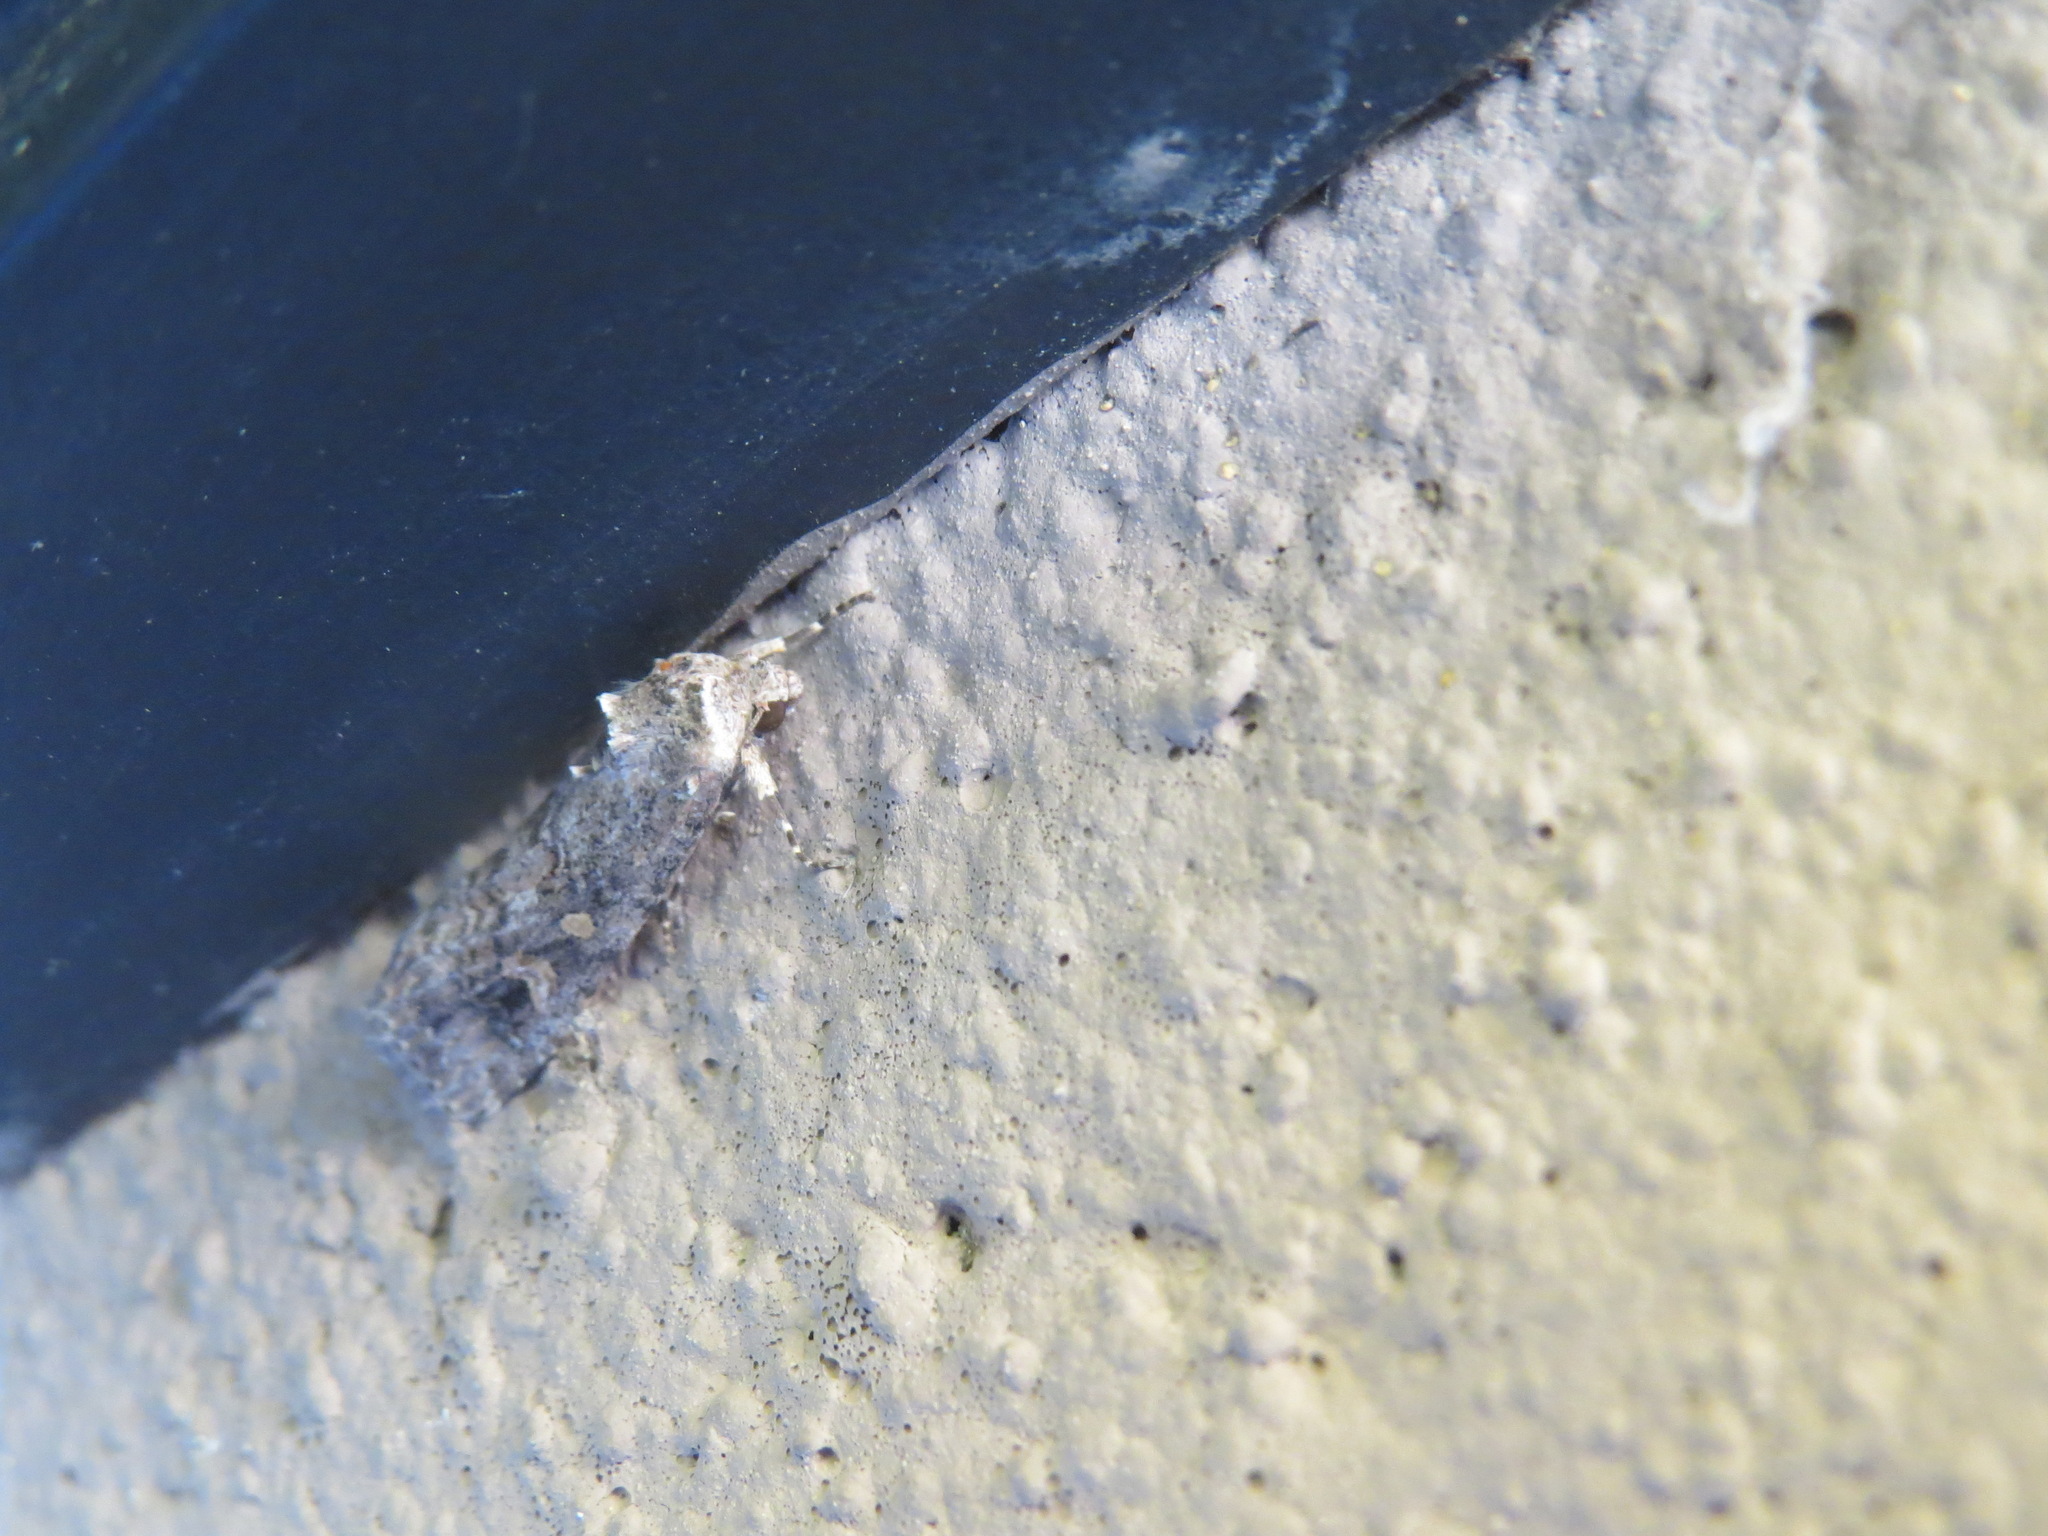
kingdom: Animalia
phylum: Arthropoda
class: Insecta
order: Lepidoptera
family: Noctuidae
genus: Spodoptera
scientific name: Spodoptera exigua
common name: Beet armyworm
